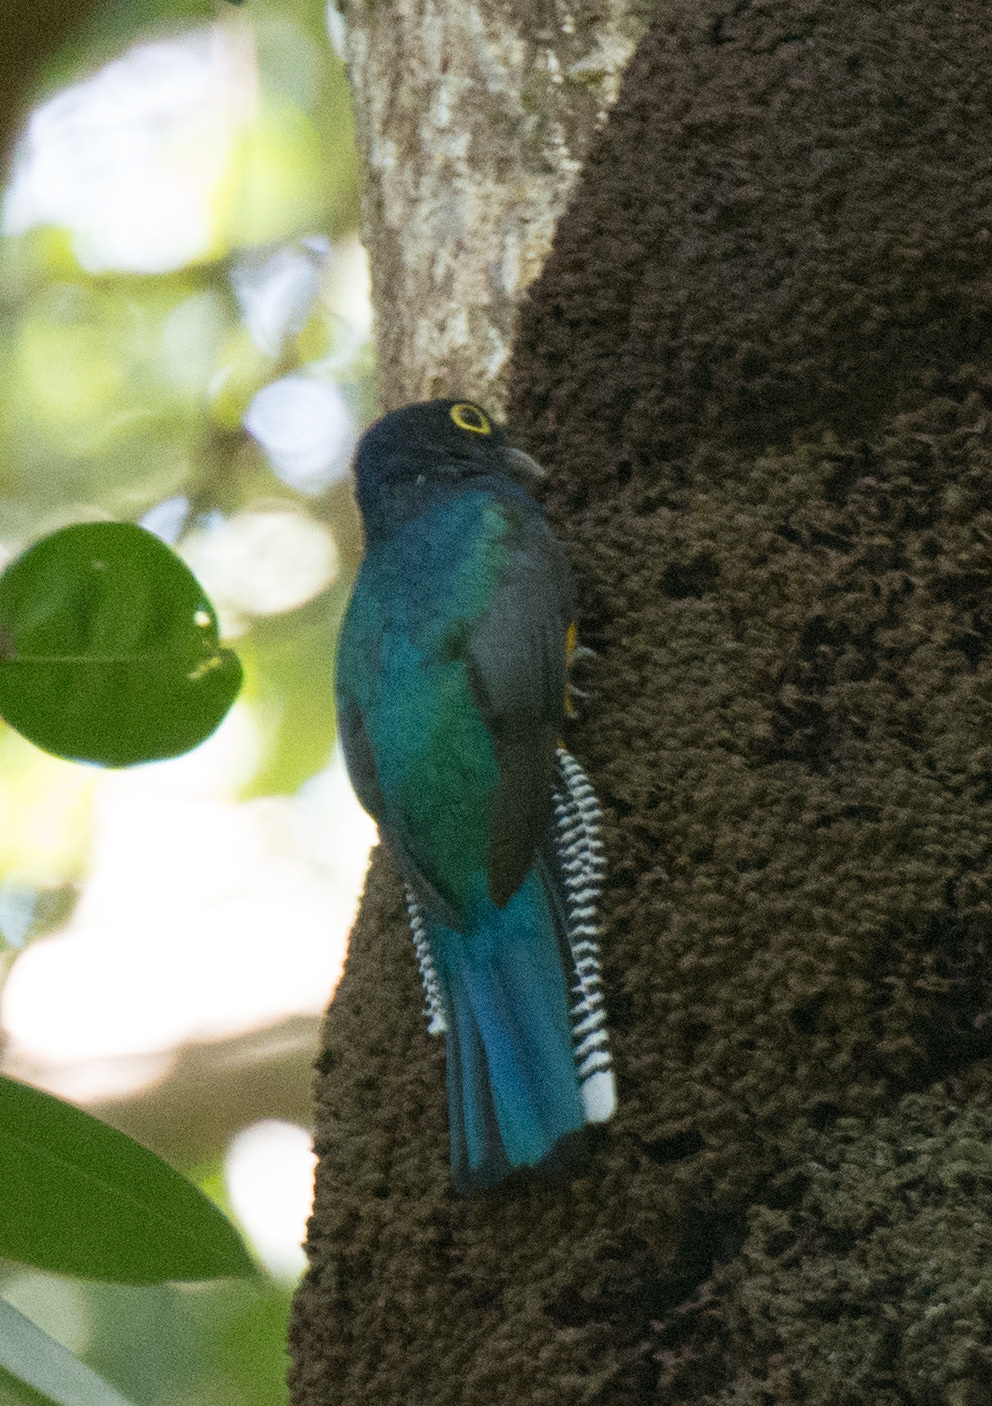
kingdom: Animalia
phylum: Chordata
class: Aves
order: Trogoniformes
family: Trogonidae
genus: Trogon
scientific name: Trogon viridis
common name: Green-backed trogon
